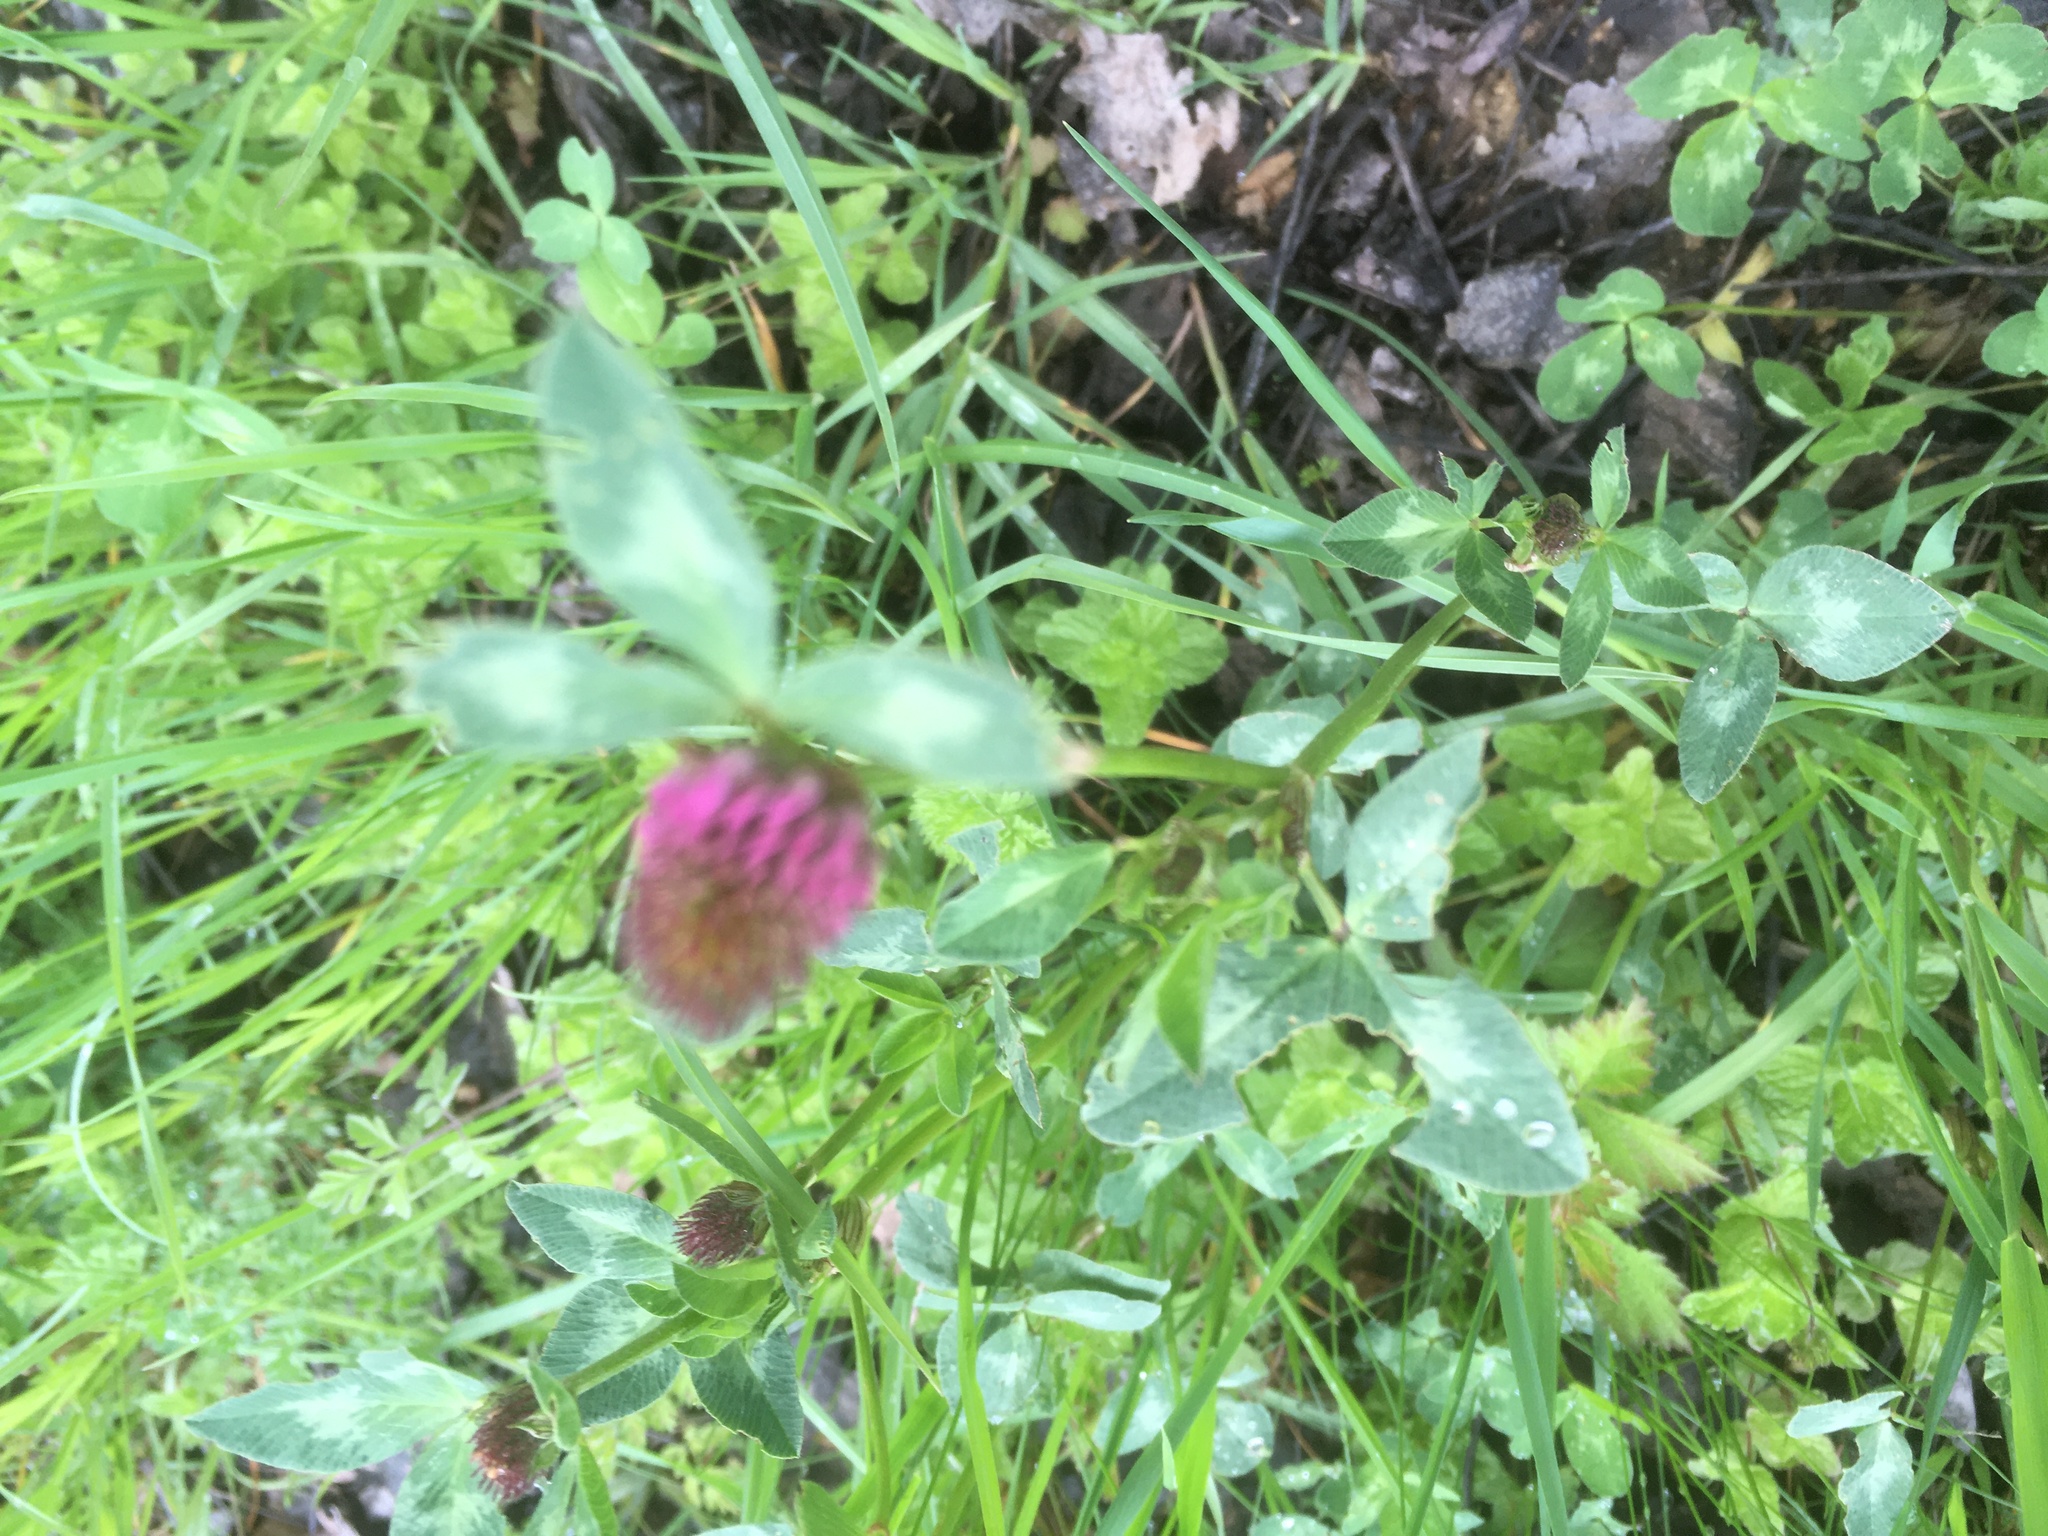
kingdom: Plantae
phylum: Tracheophyta
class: Magnoliopsida
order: Fabales
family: Fabaceae
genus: Trifolium
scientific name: Trifolium pratense
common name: Red clover
